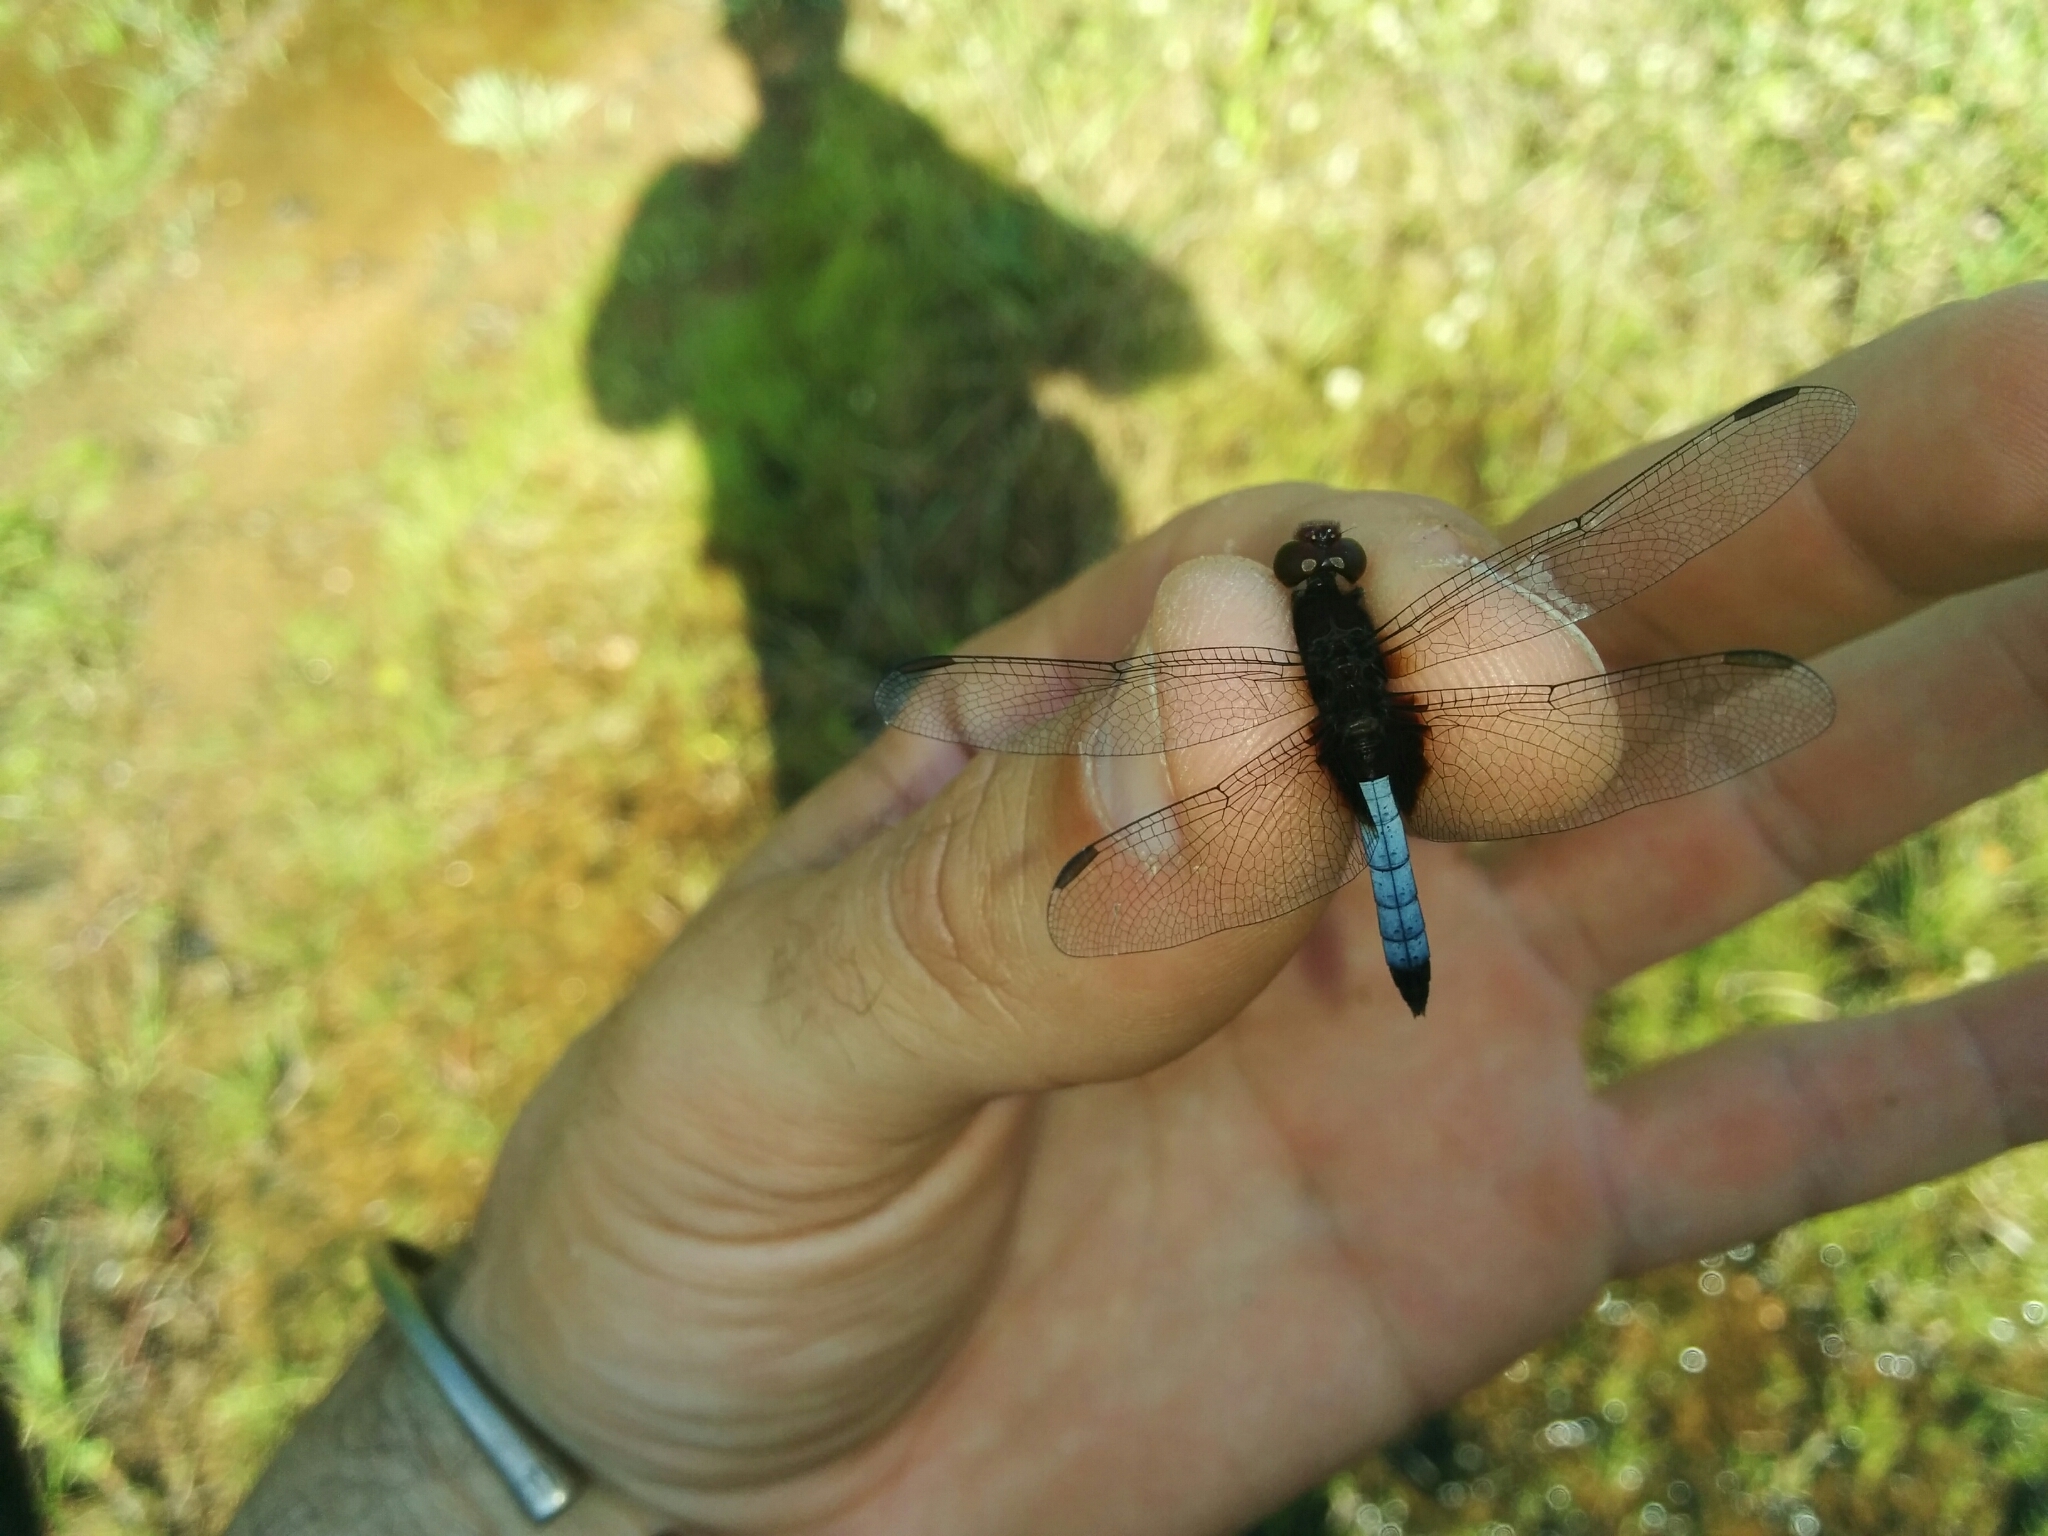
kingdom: Animalia
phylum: Arthropoda
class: Insecta
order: Odonata
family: Libellulidae
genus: Erythrodiplax
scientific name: Erythrodiplax fusca
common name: Red-faced dragonlet
